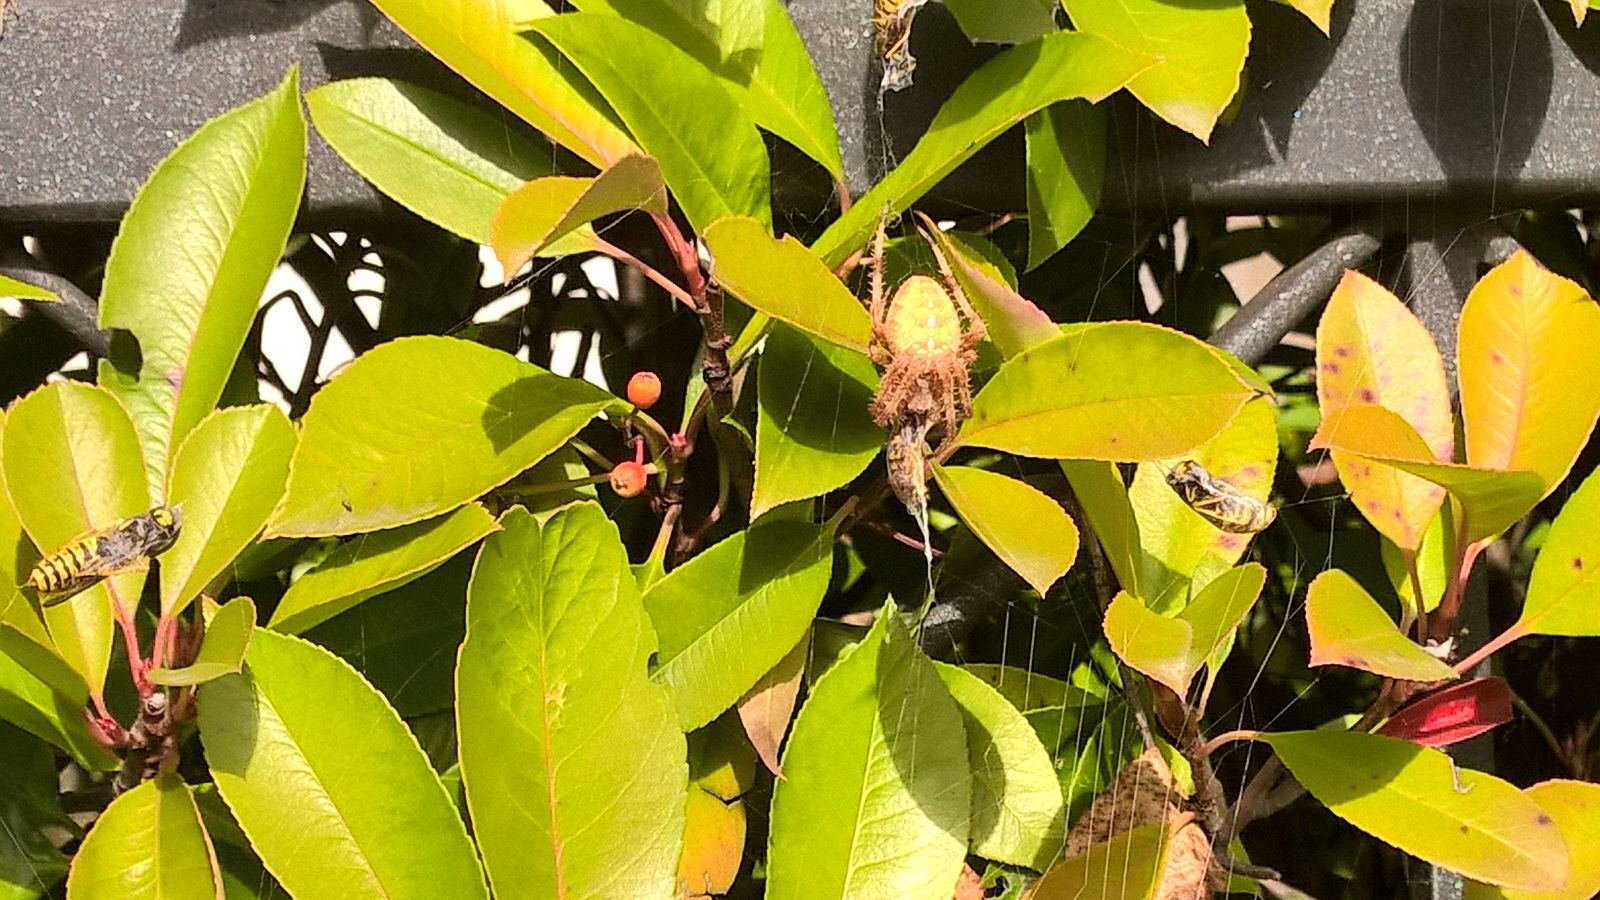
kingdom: Animalia
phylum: Arthropoda
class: Arachnida
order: Araneae
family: Araneidae
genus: Araneus
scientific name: Araneus diadematus
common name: Cross orbweaver
